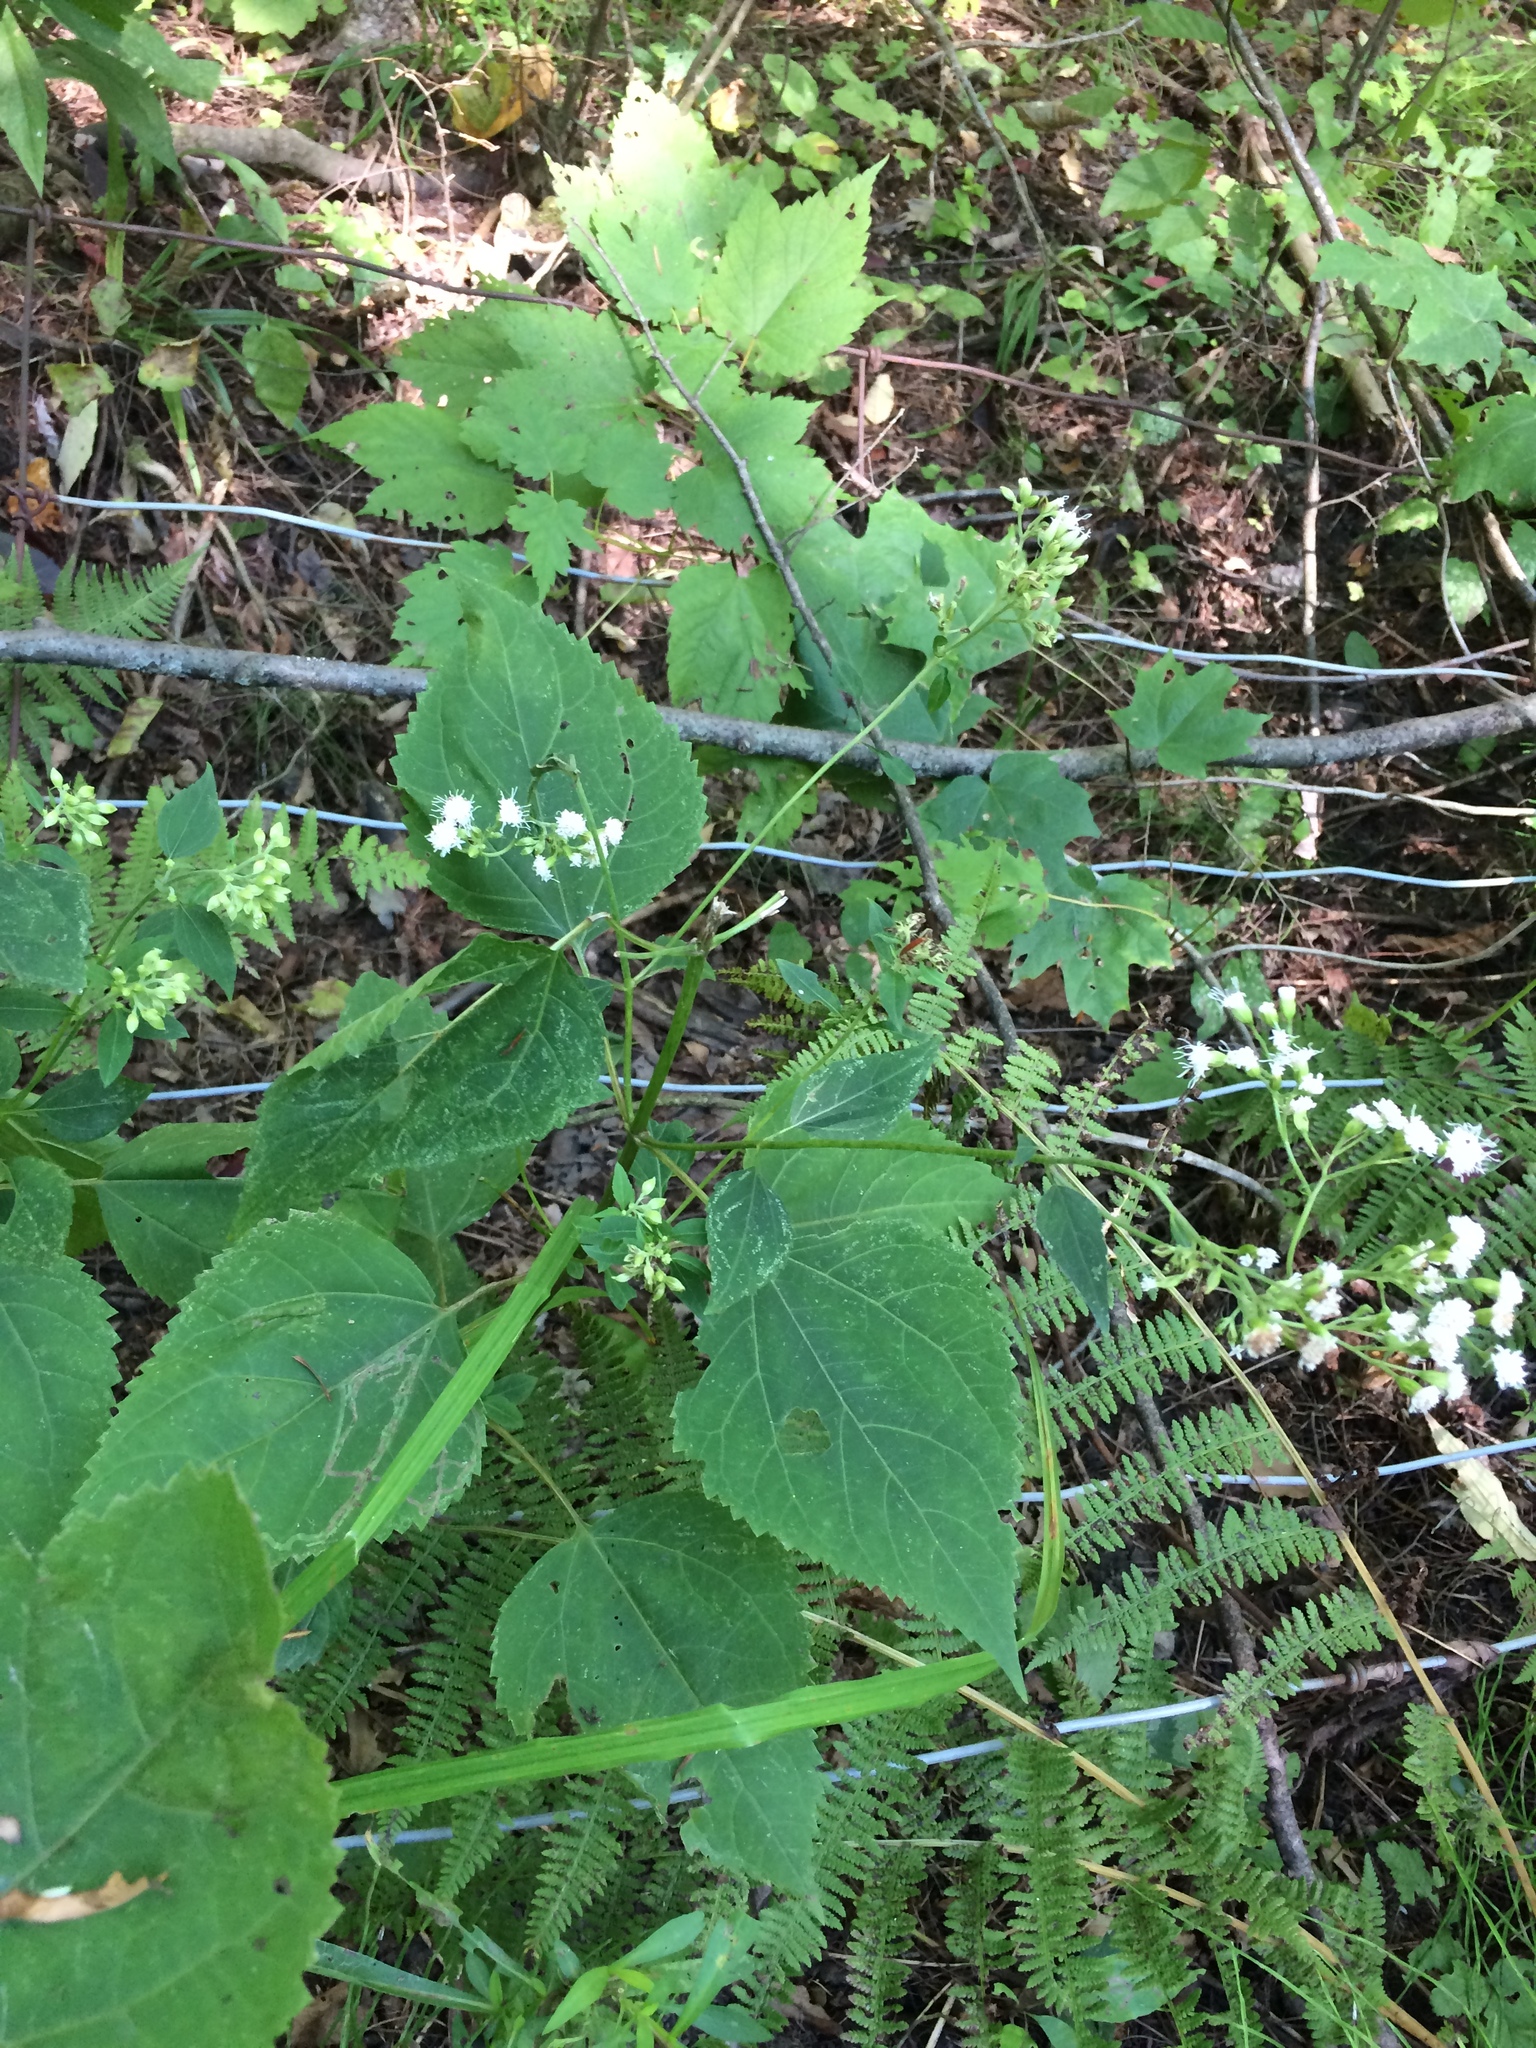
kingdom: Plantae
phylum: Tracheophyta
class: Magnoliopsida
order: Asterales
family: Asteraceae
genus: Ageratina
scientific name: Ageratina altissima
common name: White snakeroot
